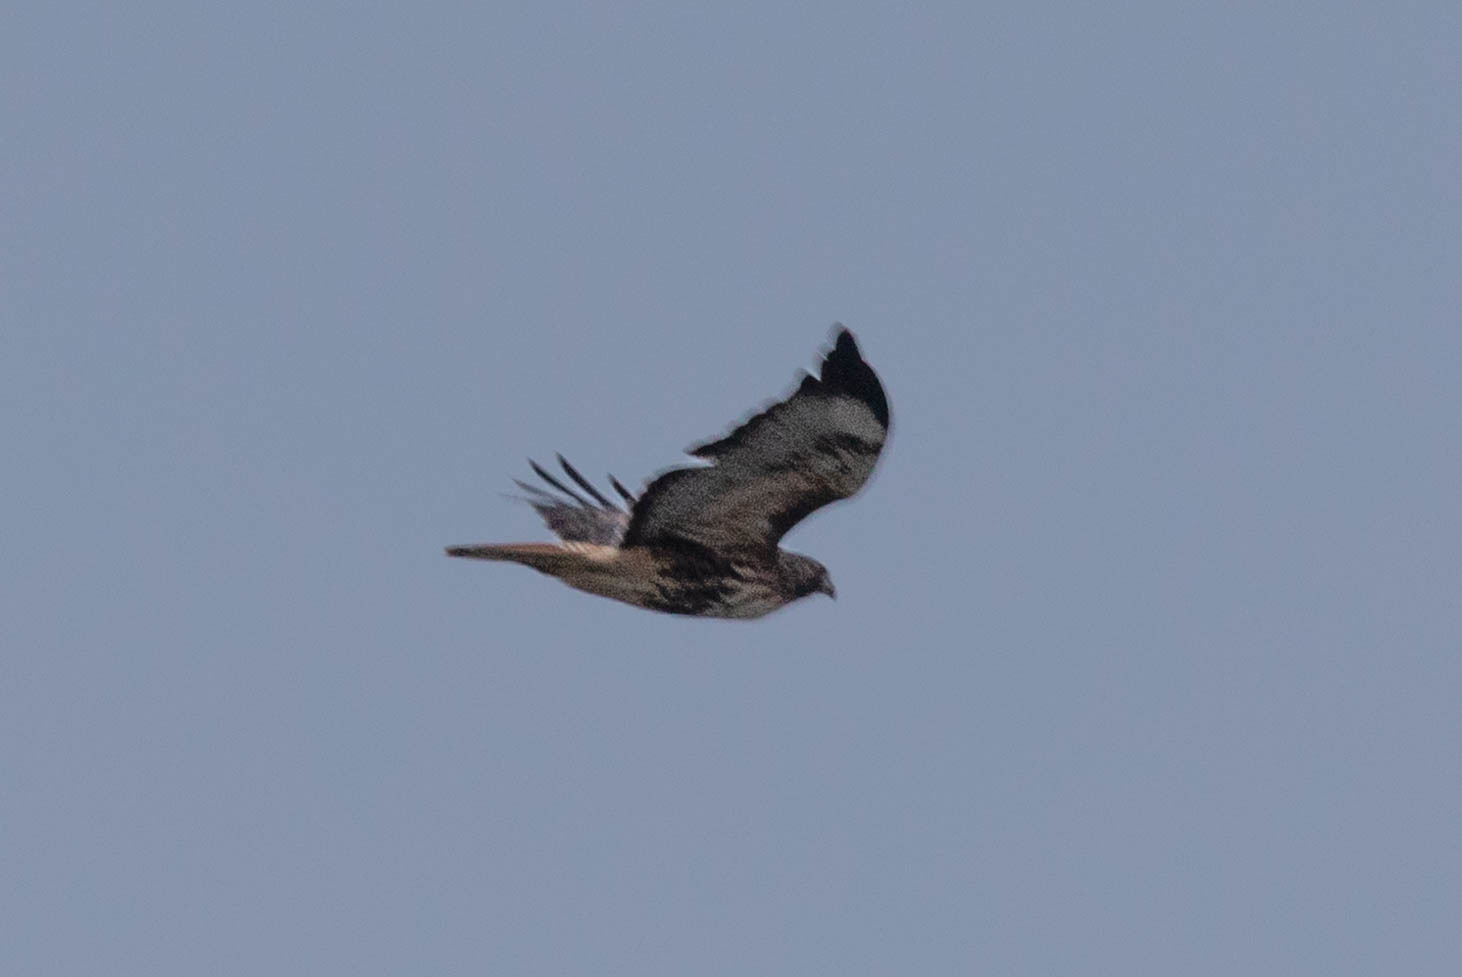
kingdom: Animalia
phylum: Chordata
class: Aves
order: Accipitriformes
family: Accipitridae
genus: Buteo
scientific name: Buteo jamaicensis
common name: Red-tailed hawk
